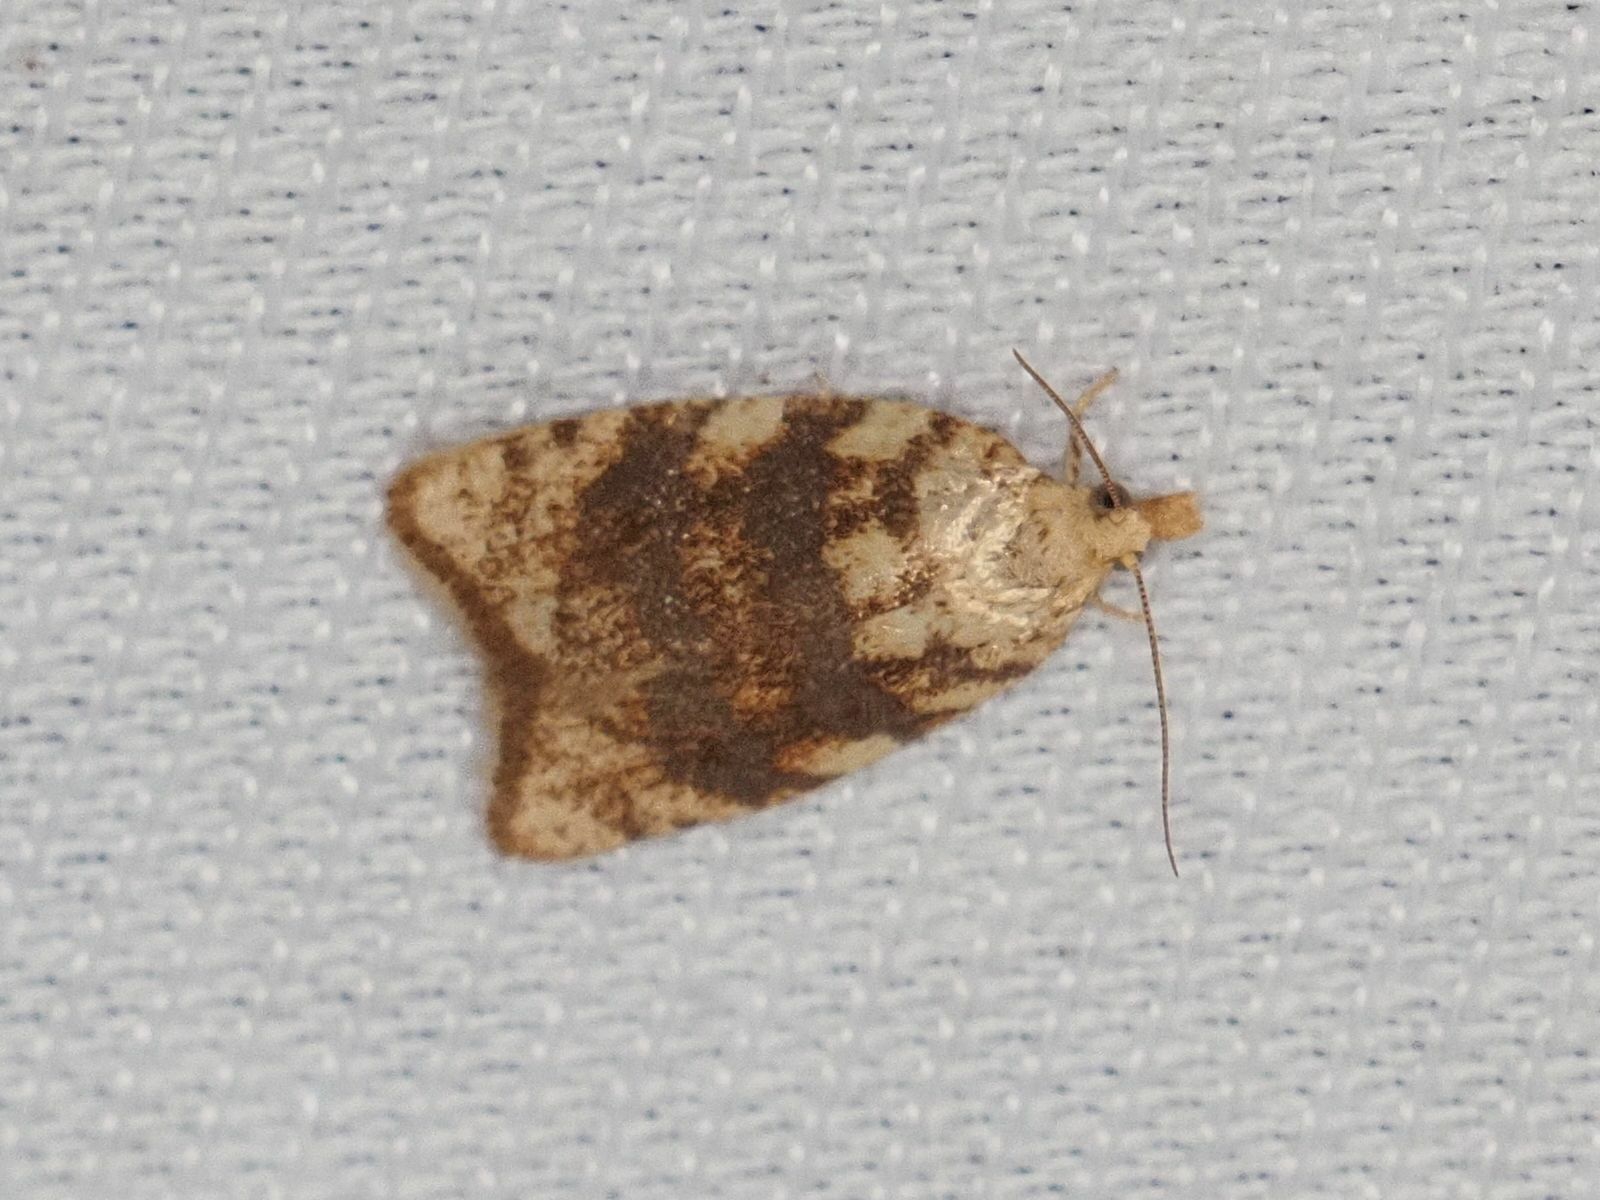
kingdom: Animalia
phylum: Arthropoda
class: Insecta
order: Lepidoptera
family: Tortricidae
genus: Aleimma
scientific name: Aleimma loeflingiana
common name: Yellow oak button
